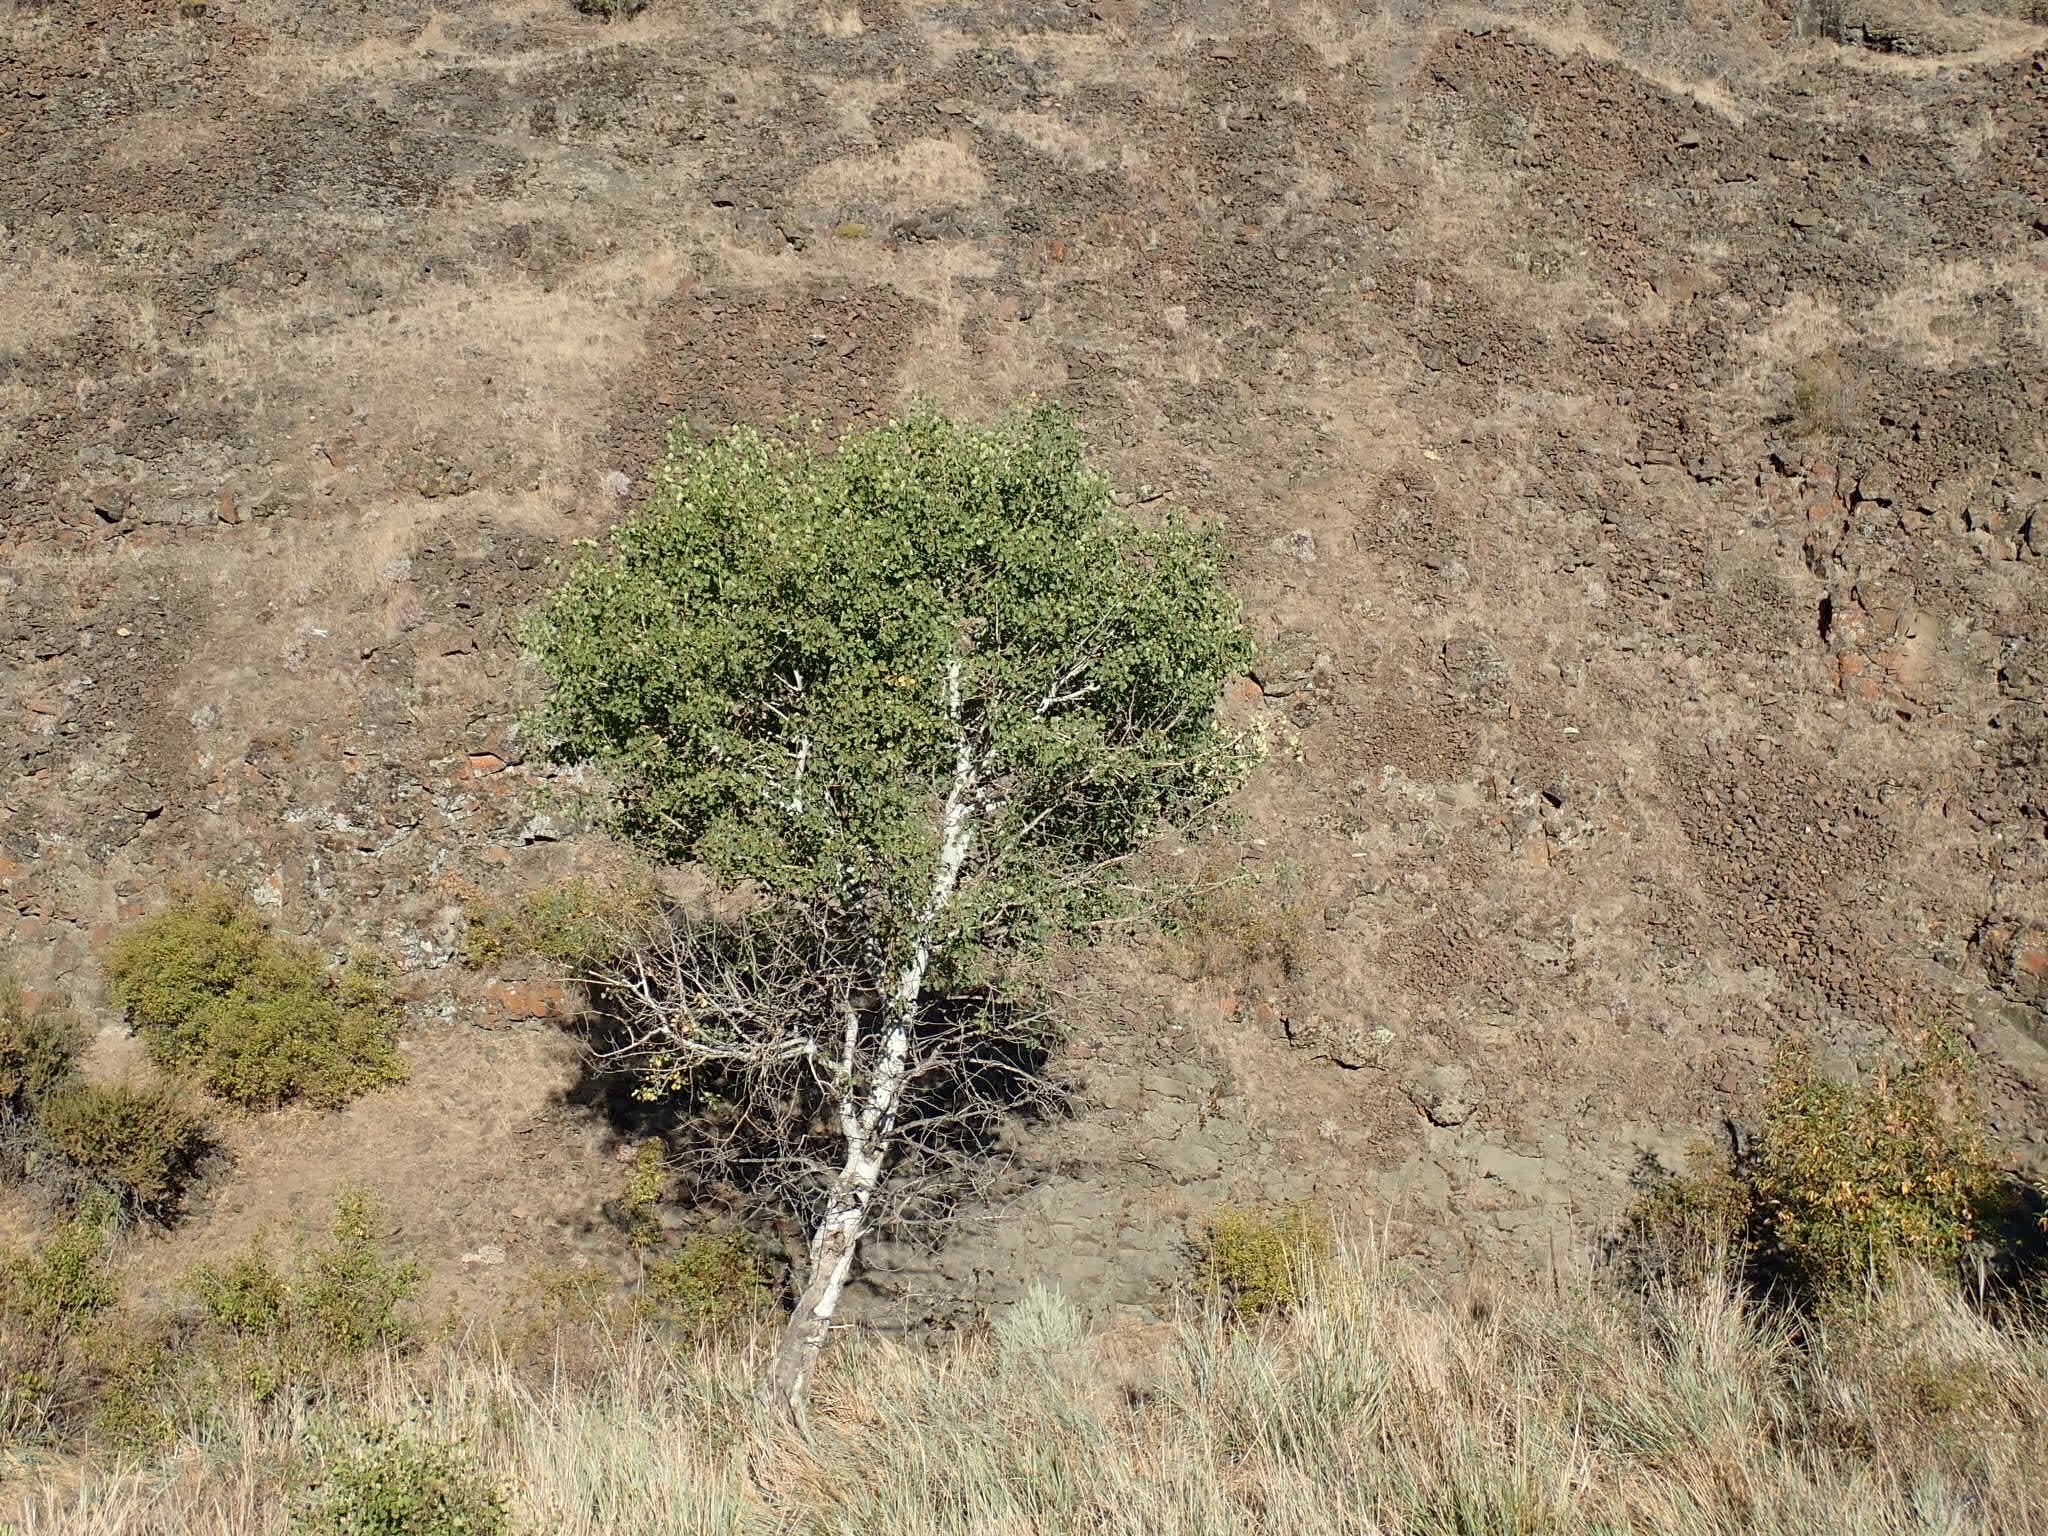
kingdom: Plantae
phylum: Tracheophyta
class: Magnoliopsida
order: Malpighiales
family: Salicaceae
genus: Populus
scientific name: Populus tremuloides
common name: Quaking aspen
